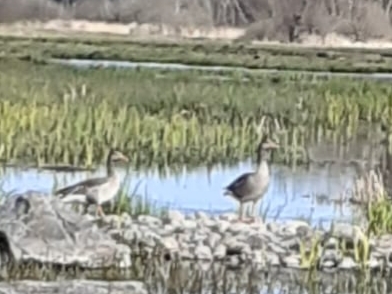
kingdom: Animalia
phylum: Chordata
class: Aves
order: Anseriformes
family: Anatidae
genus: Anser
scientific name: Anser anser
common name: Greylag goose
